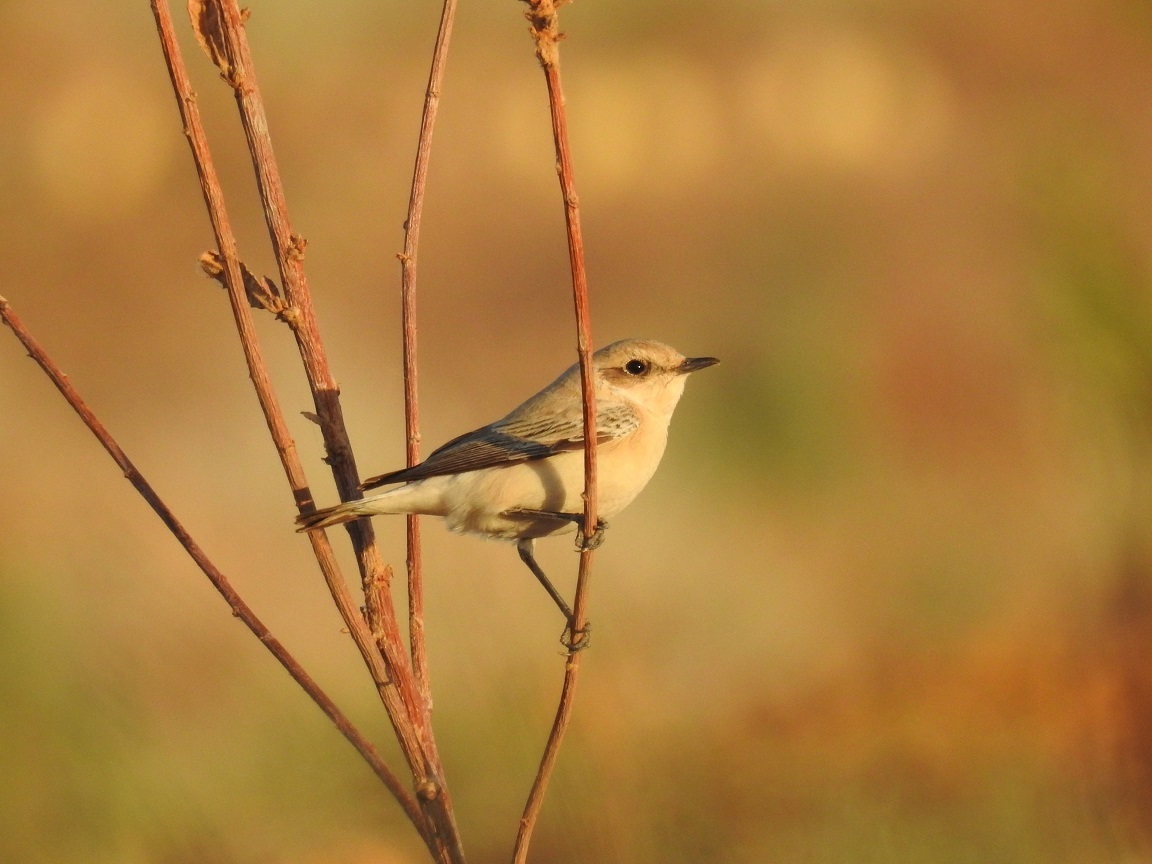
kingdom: Animalia
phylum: Chordata
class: Aves
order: Passeriformes
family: Muscicapidae
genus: Oenanthe
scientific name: Oenanthe hispanica
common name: Black-eared wheatear
